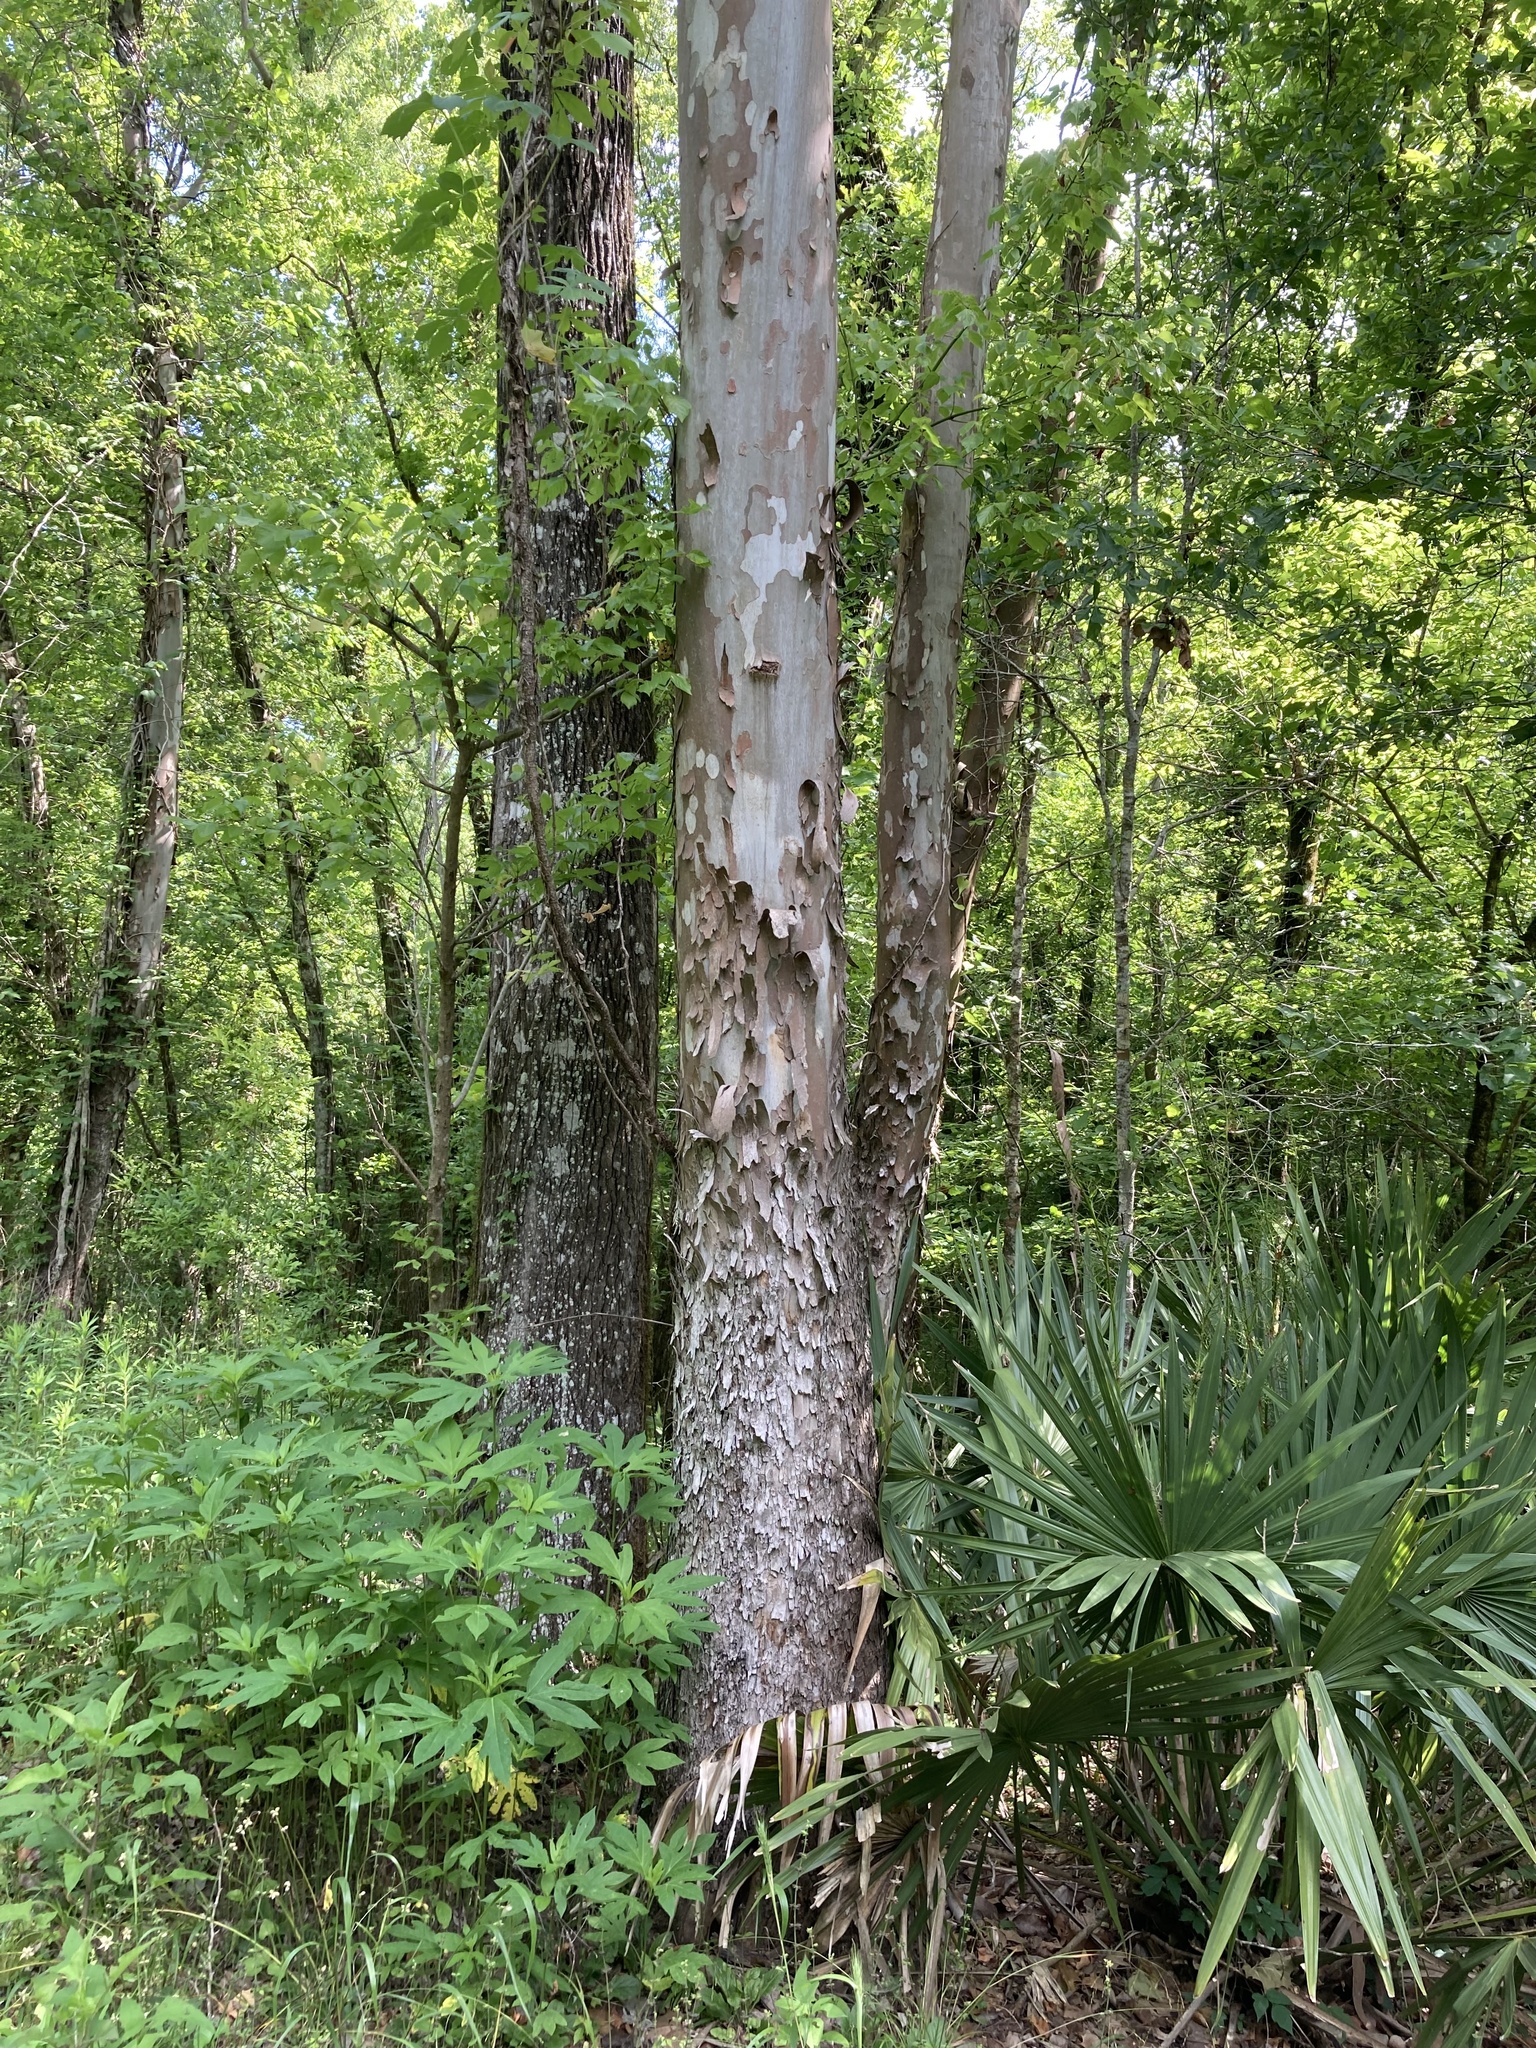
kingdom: Plantae
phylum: Tracheophyta
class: Magnoliopsida
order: Proteales
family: Platanaceae
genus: Platanus
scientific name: Platanus occidentalis
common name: American sycamore
